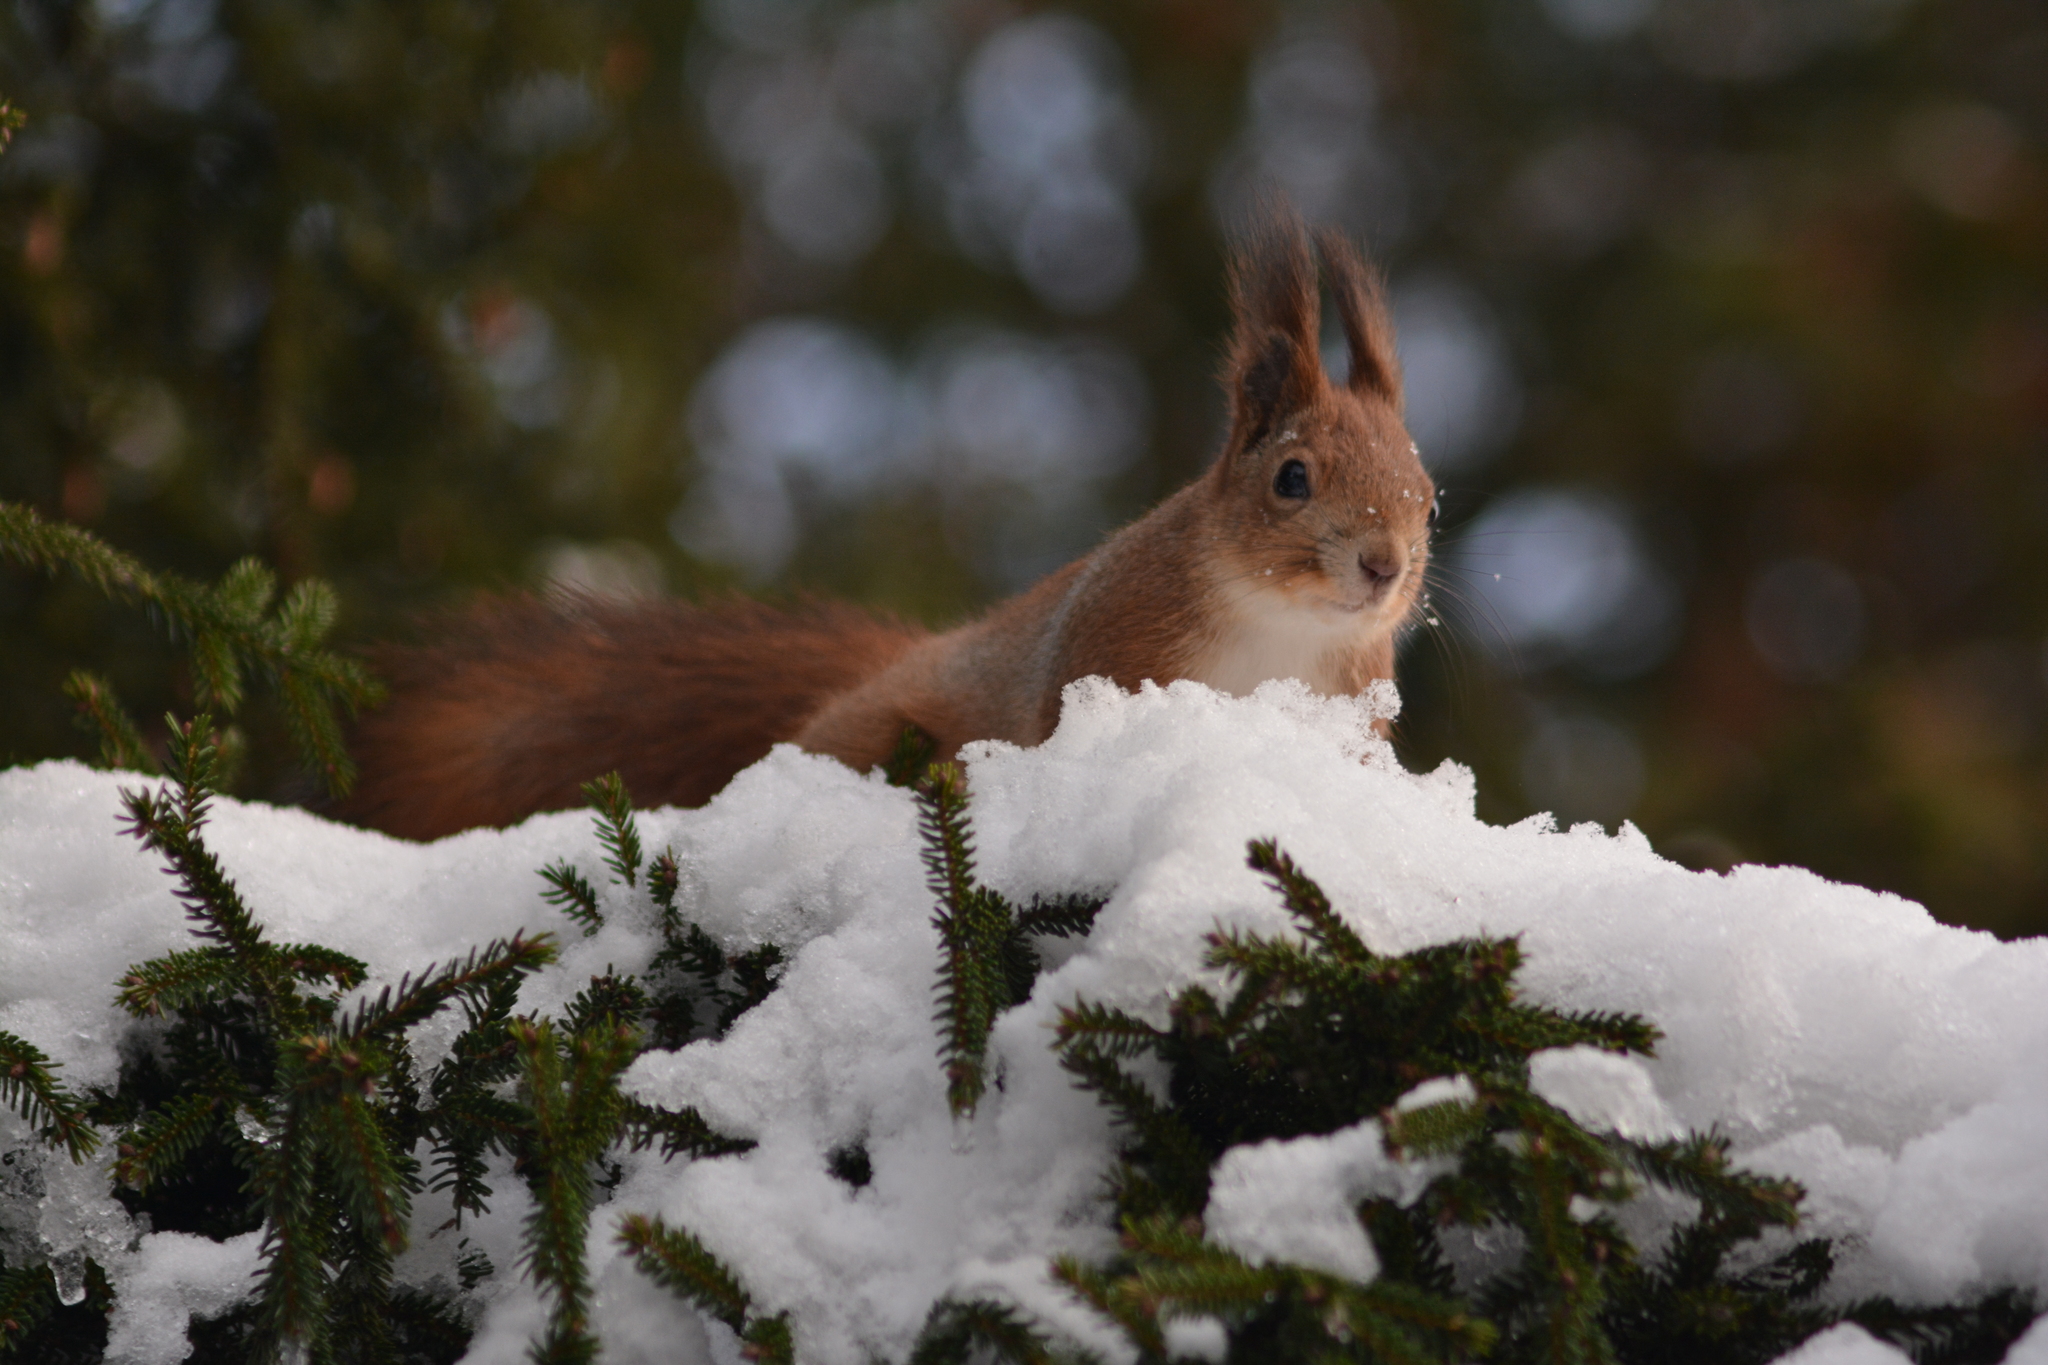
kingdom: Animalia
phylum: Chordata
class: Mammalia
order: Rodentia
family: Sciuridae
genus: Sciurus
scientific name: Sciurus vulgaris
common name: Eurasian red squirrel
